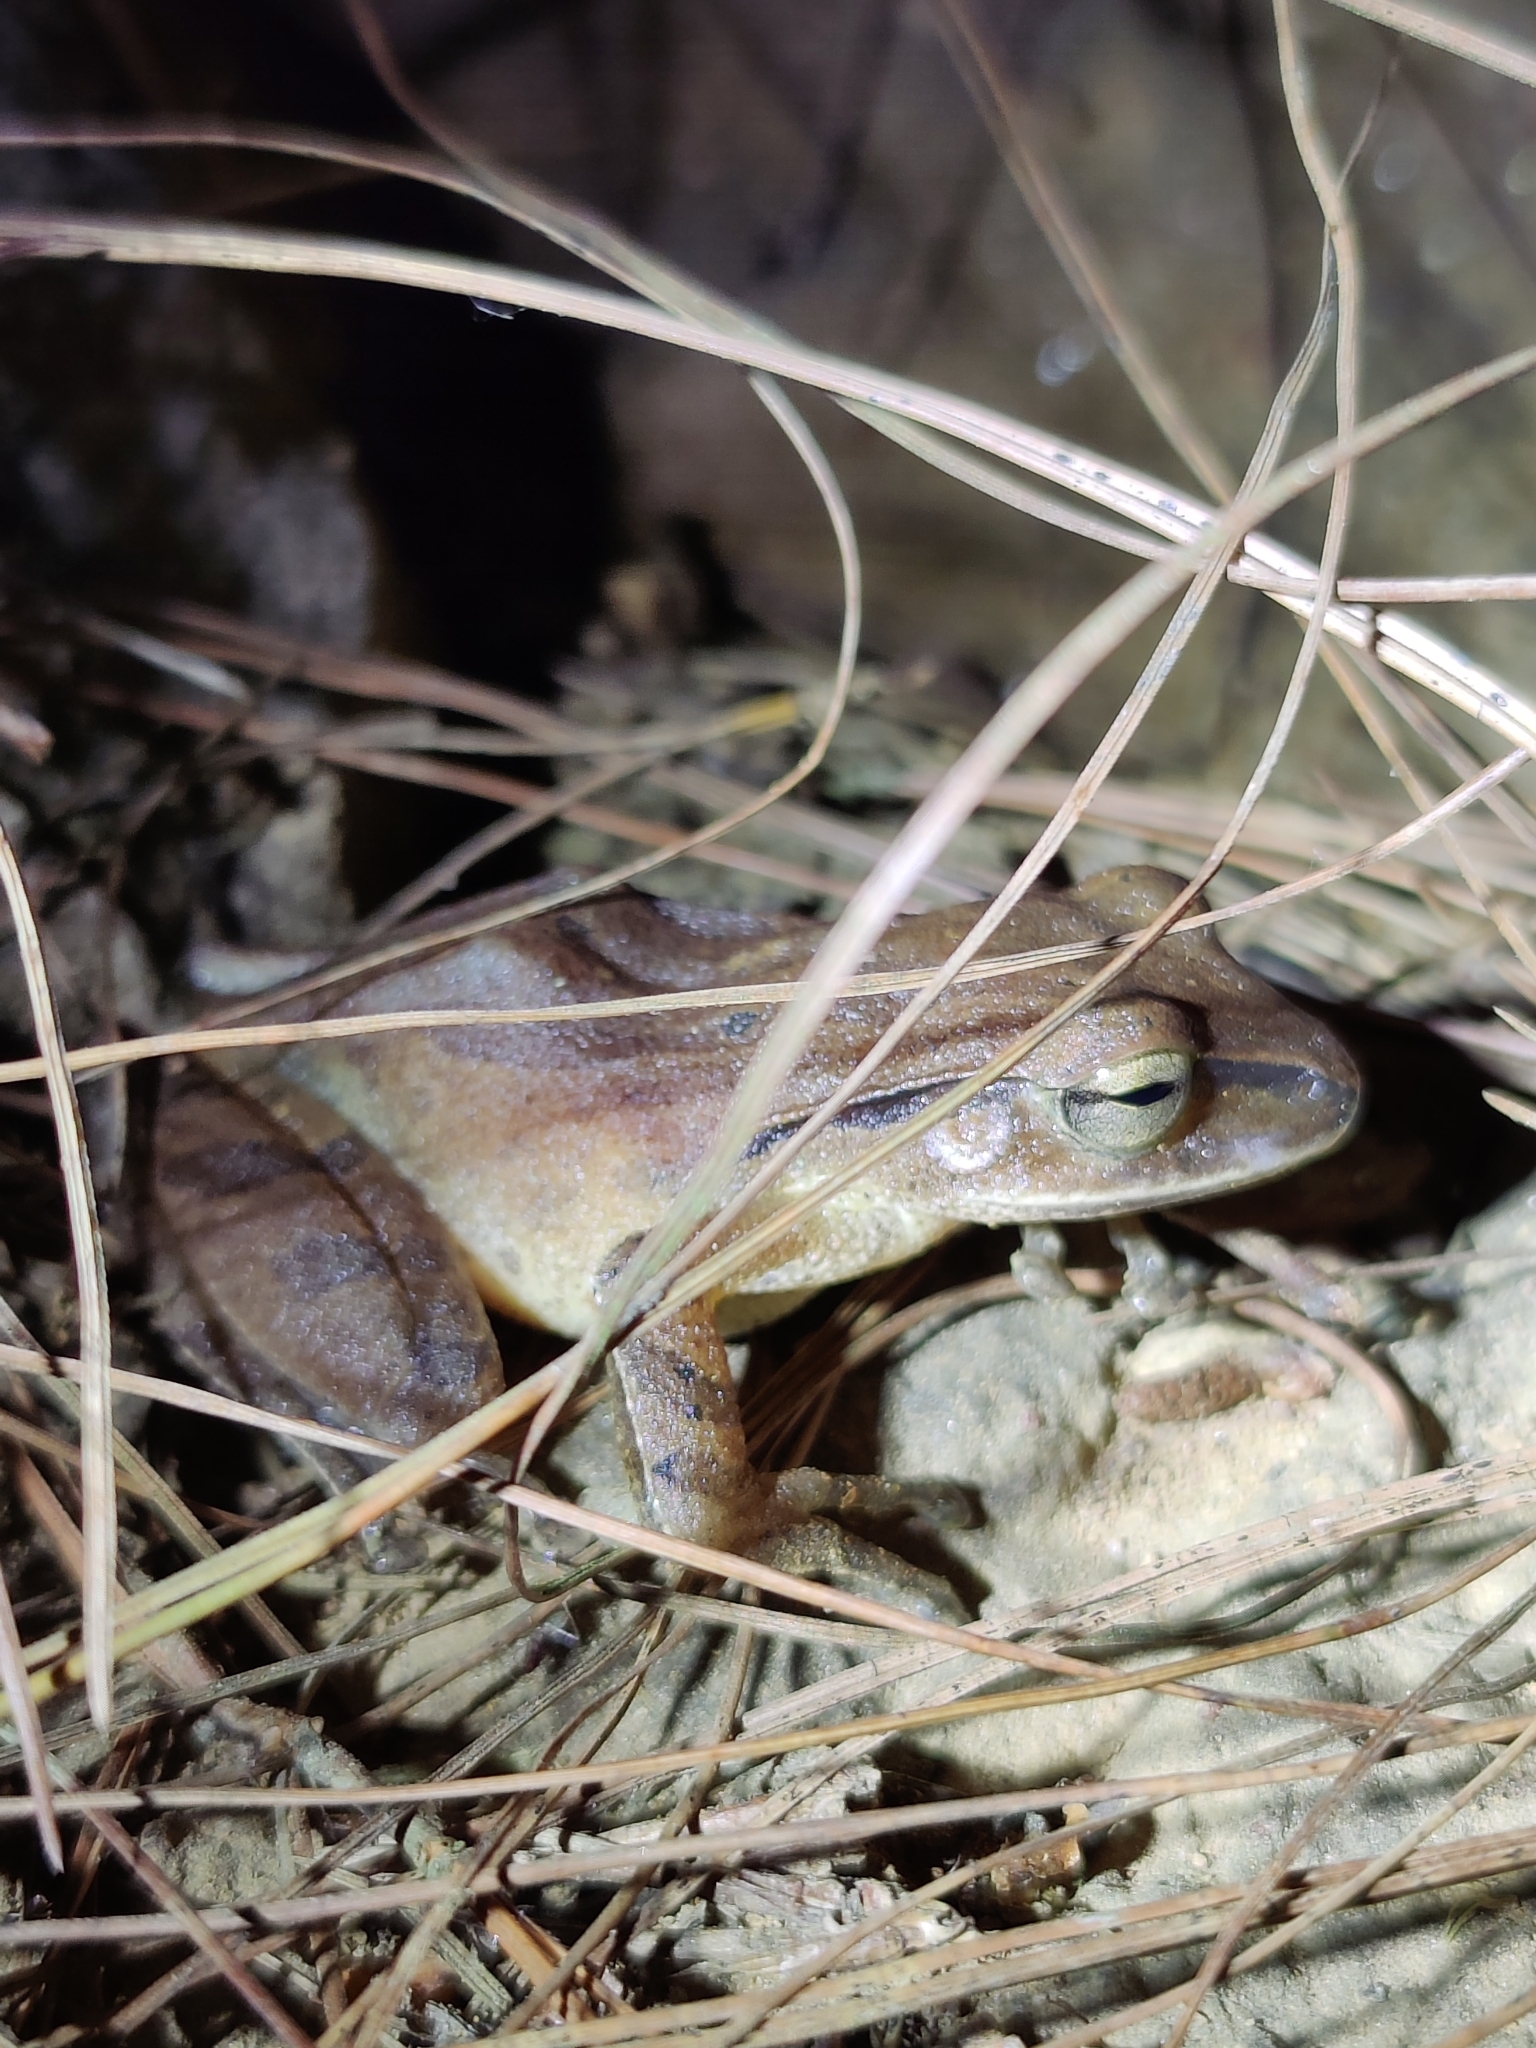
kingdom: Animalia
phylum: Chordata
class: Amphibia
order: Anura
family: Rhacophoridae
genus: Polypedates
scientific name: Polypedates subansiriensis
